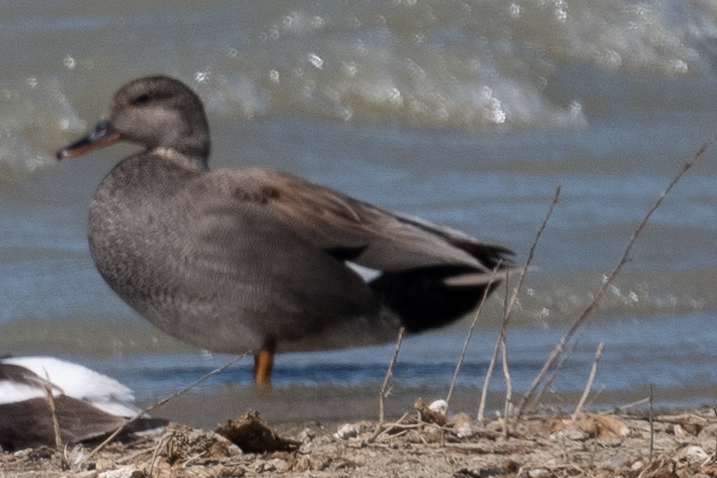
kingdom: Animalia
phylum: Chordata
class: Aves
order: Anseriformes
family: Anatidae
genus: Mareca
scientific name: Mareca strepera
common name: Gadwall
